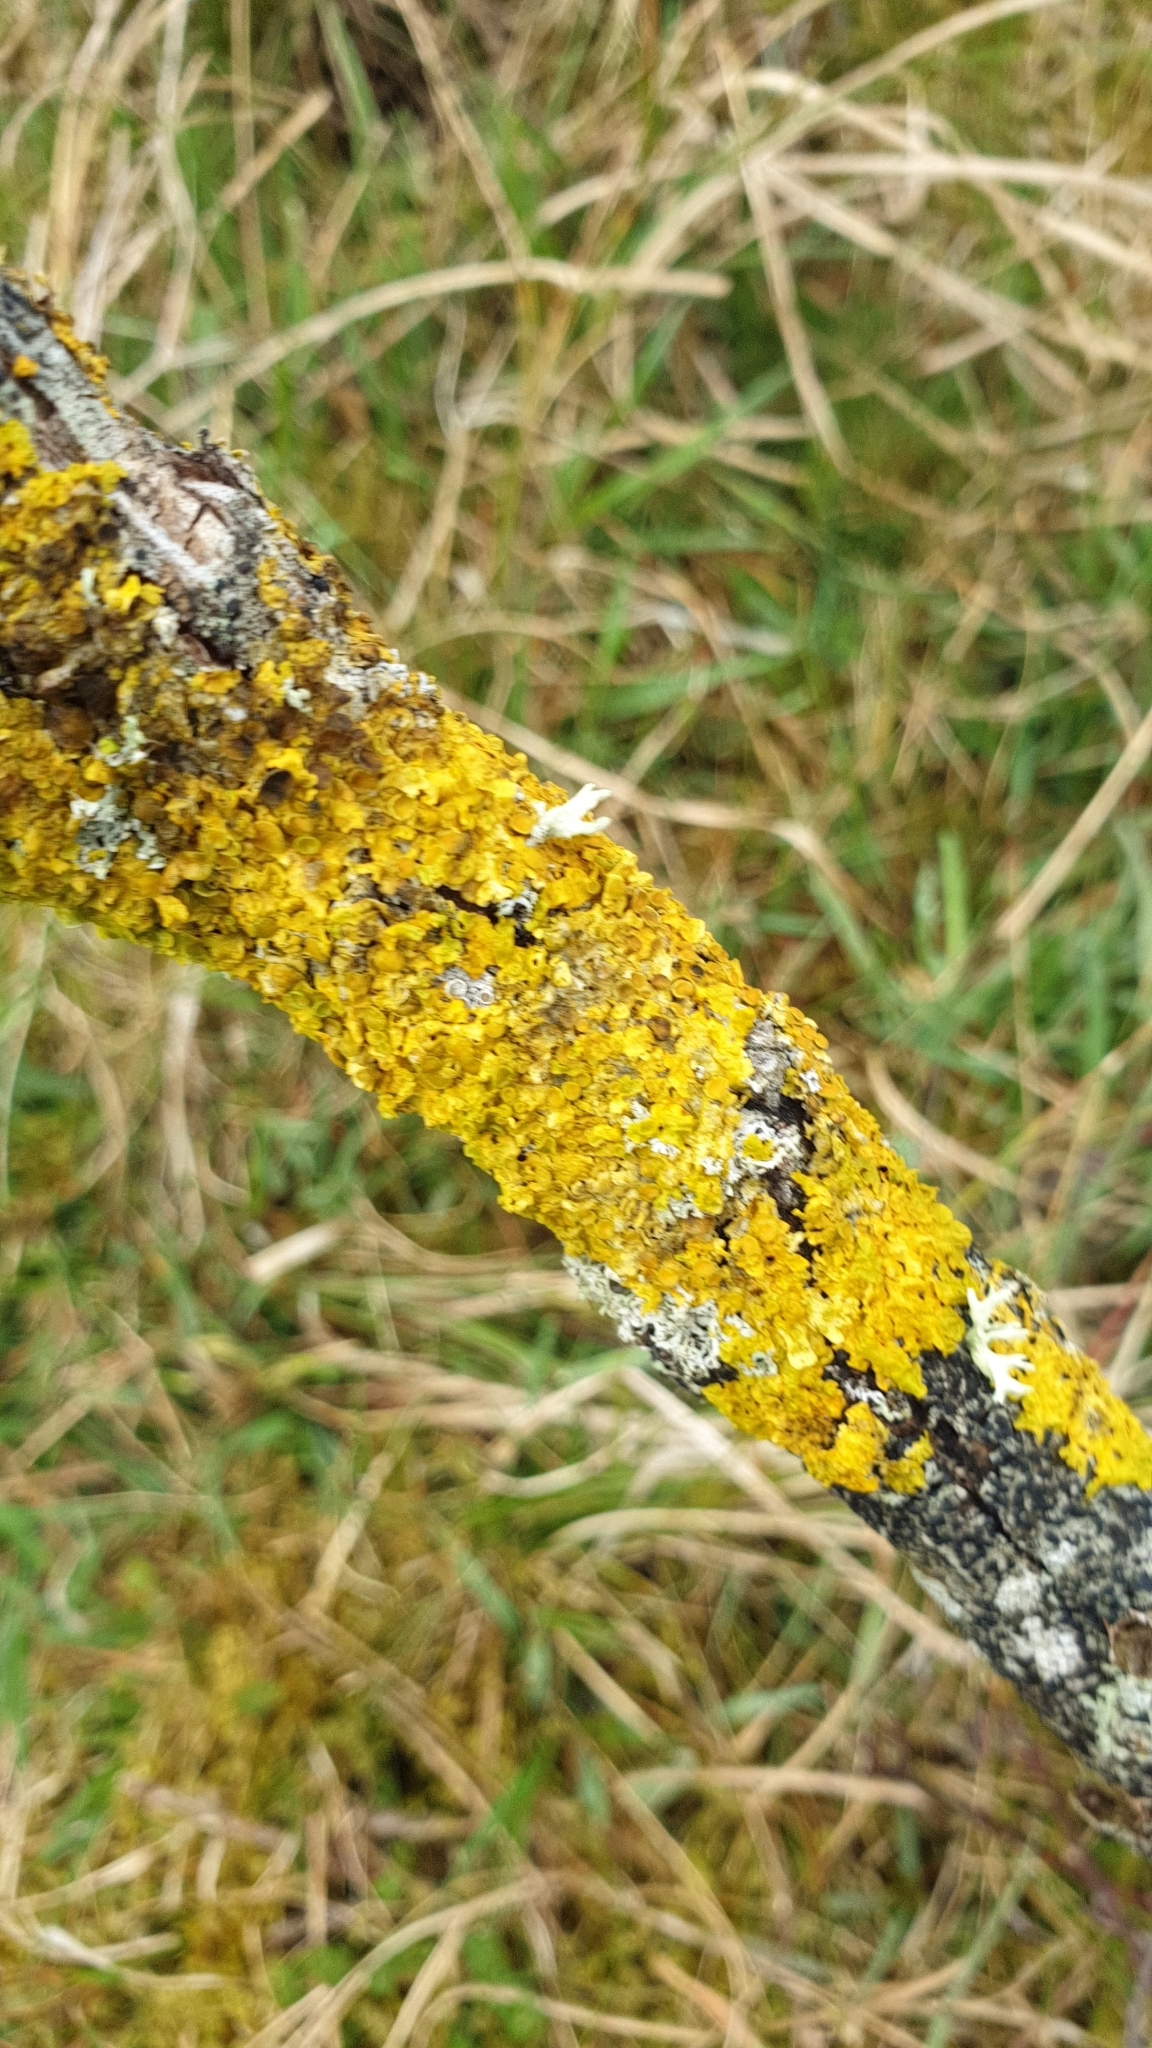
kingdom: Fungi
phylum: Ascomycota
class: Lecanoromycetes
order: Teloschistales
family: Teloschistaceae
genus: Xanthoria
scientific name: Xanthoria parietina
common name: Common orange lichen
